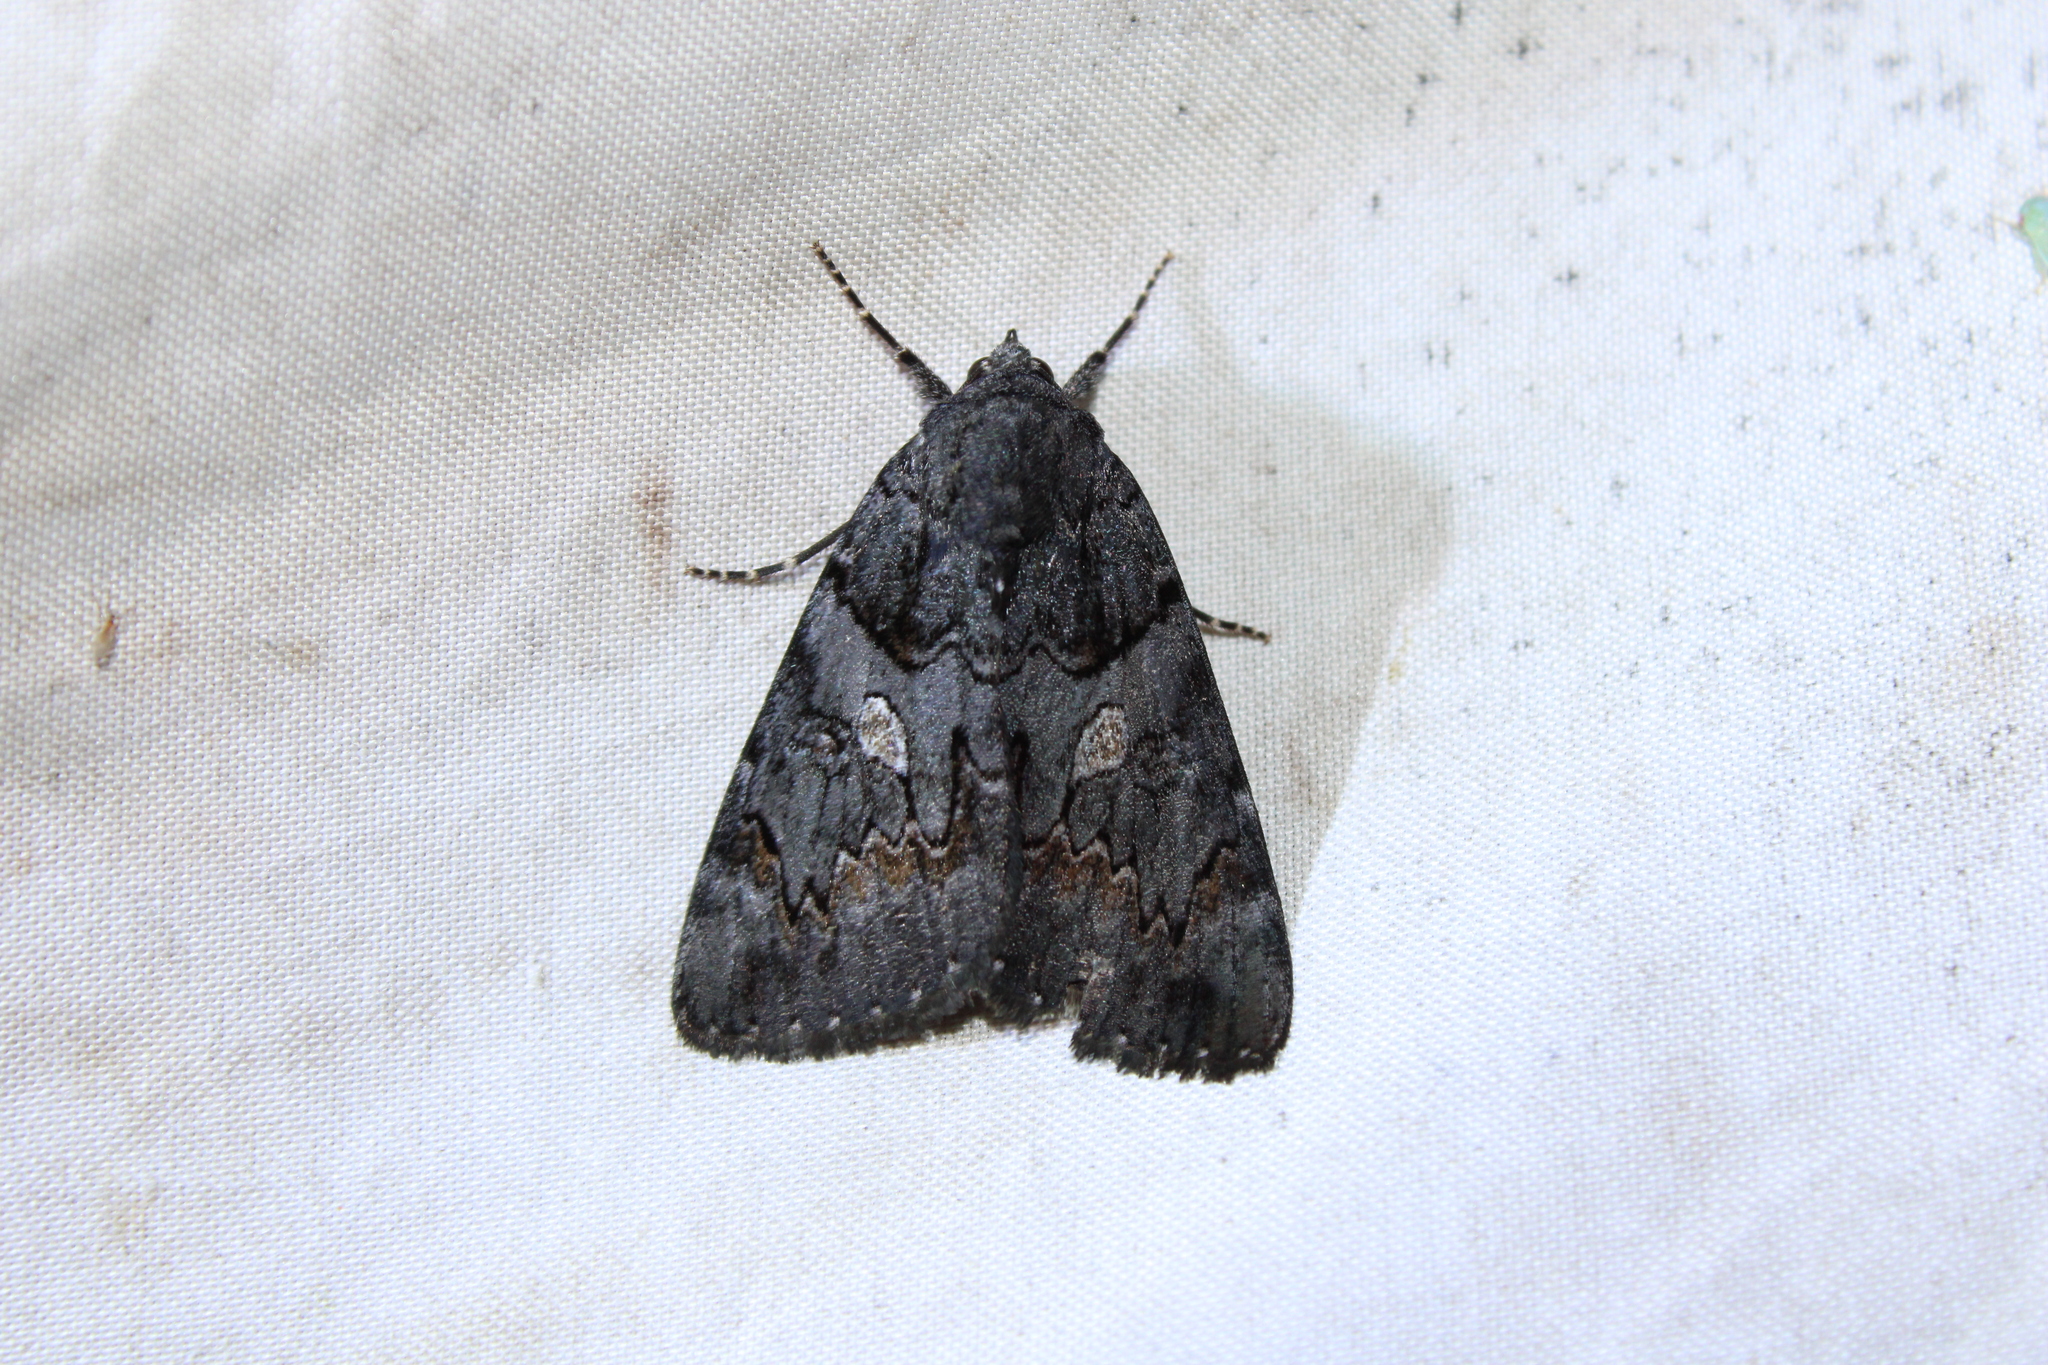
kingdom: Animalia
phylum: Arthropoda
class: Insecta
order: Lepidoptera
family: Erebidae
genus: Catocala
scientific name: Catocala antinympha
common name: Sweetfern underwing
